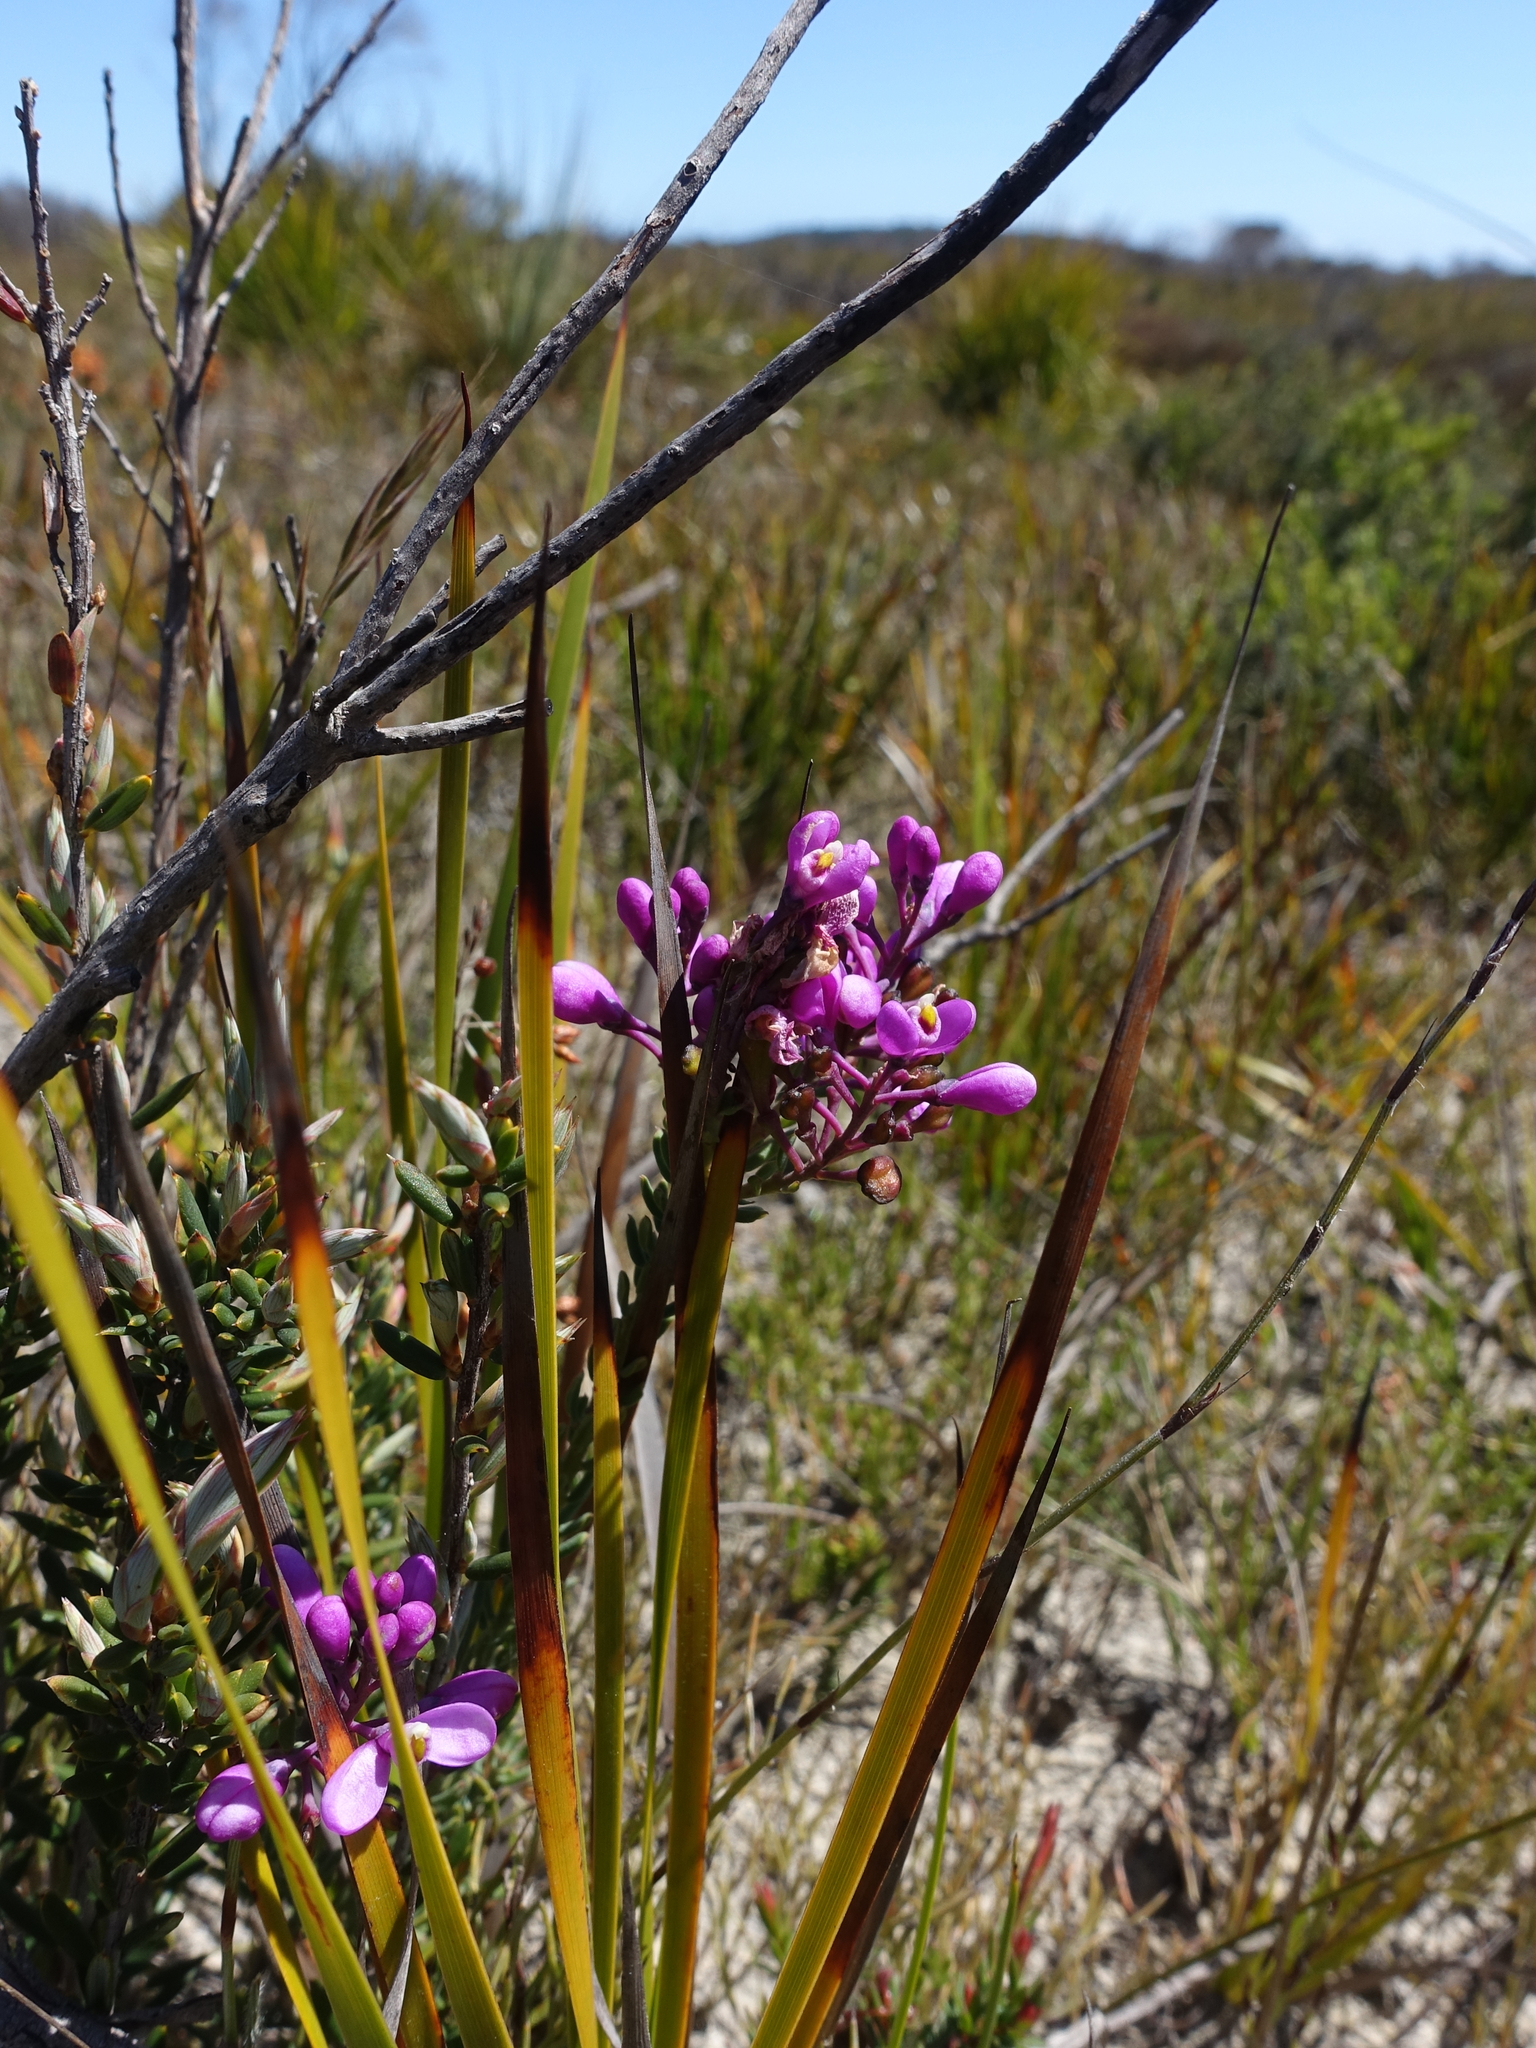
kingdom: Plantae
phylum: Tracheophyta
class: Magnoliopsida
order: Fabales
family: Polygalaceae
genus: Comesperma
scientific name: Comesperma ericinum
